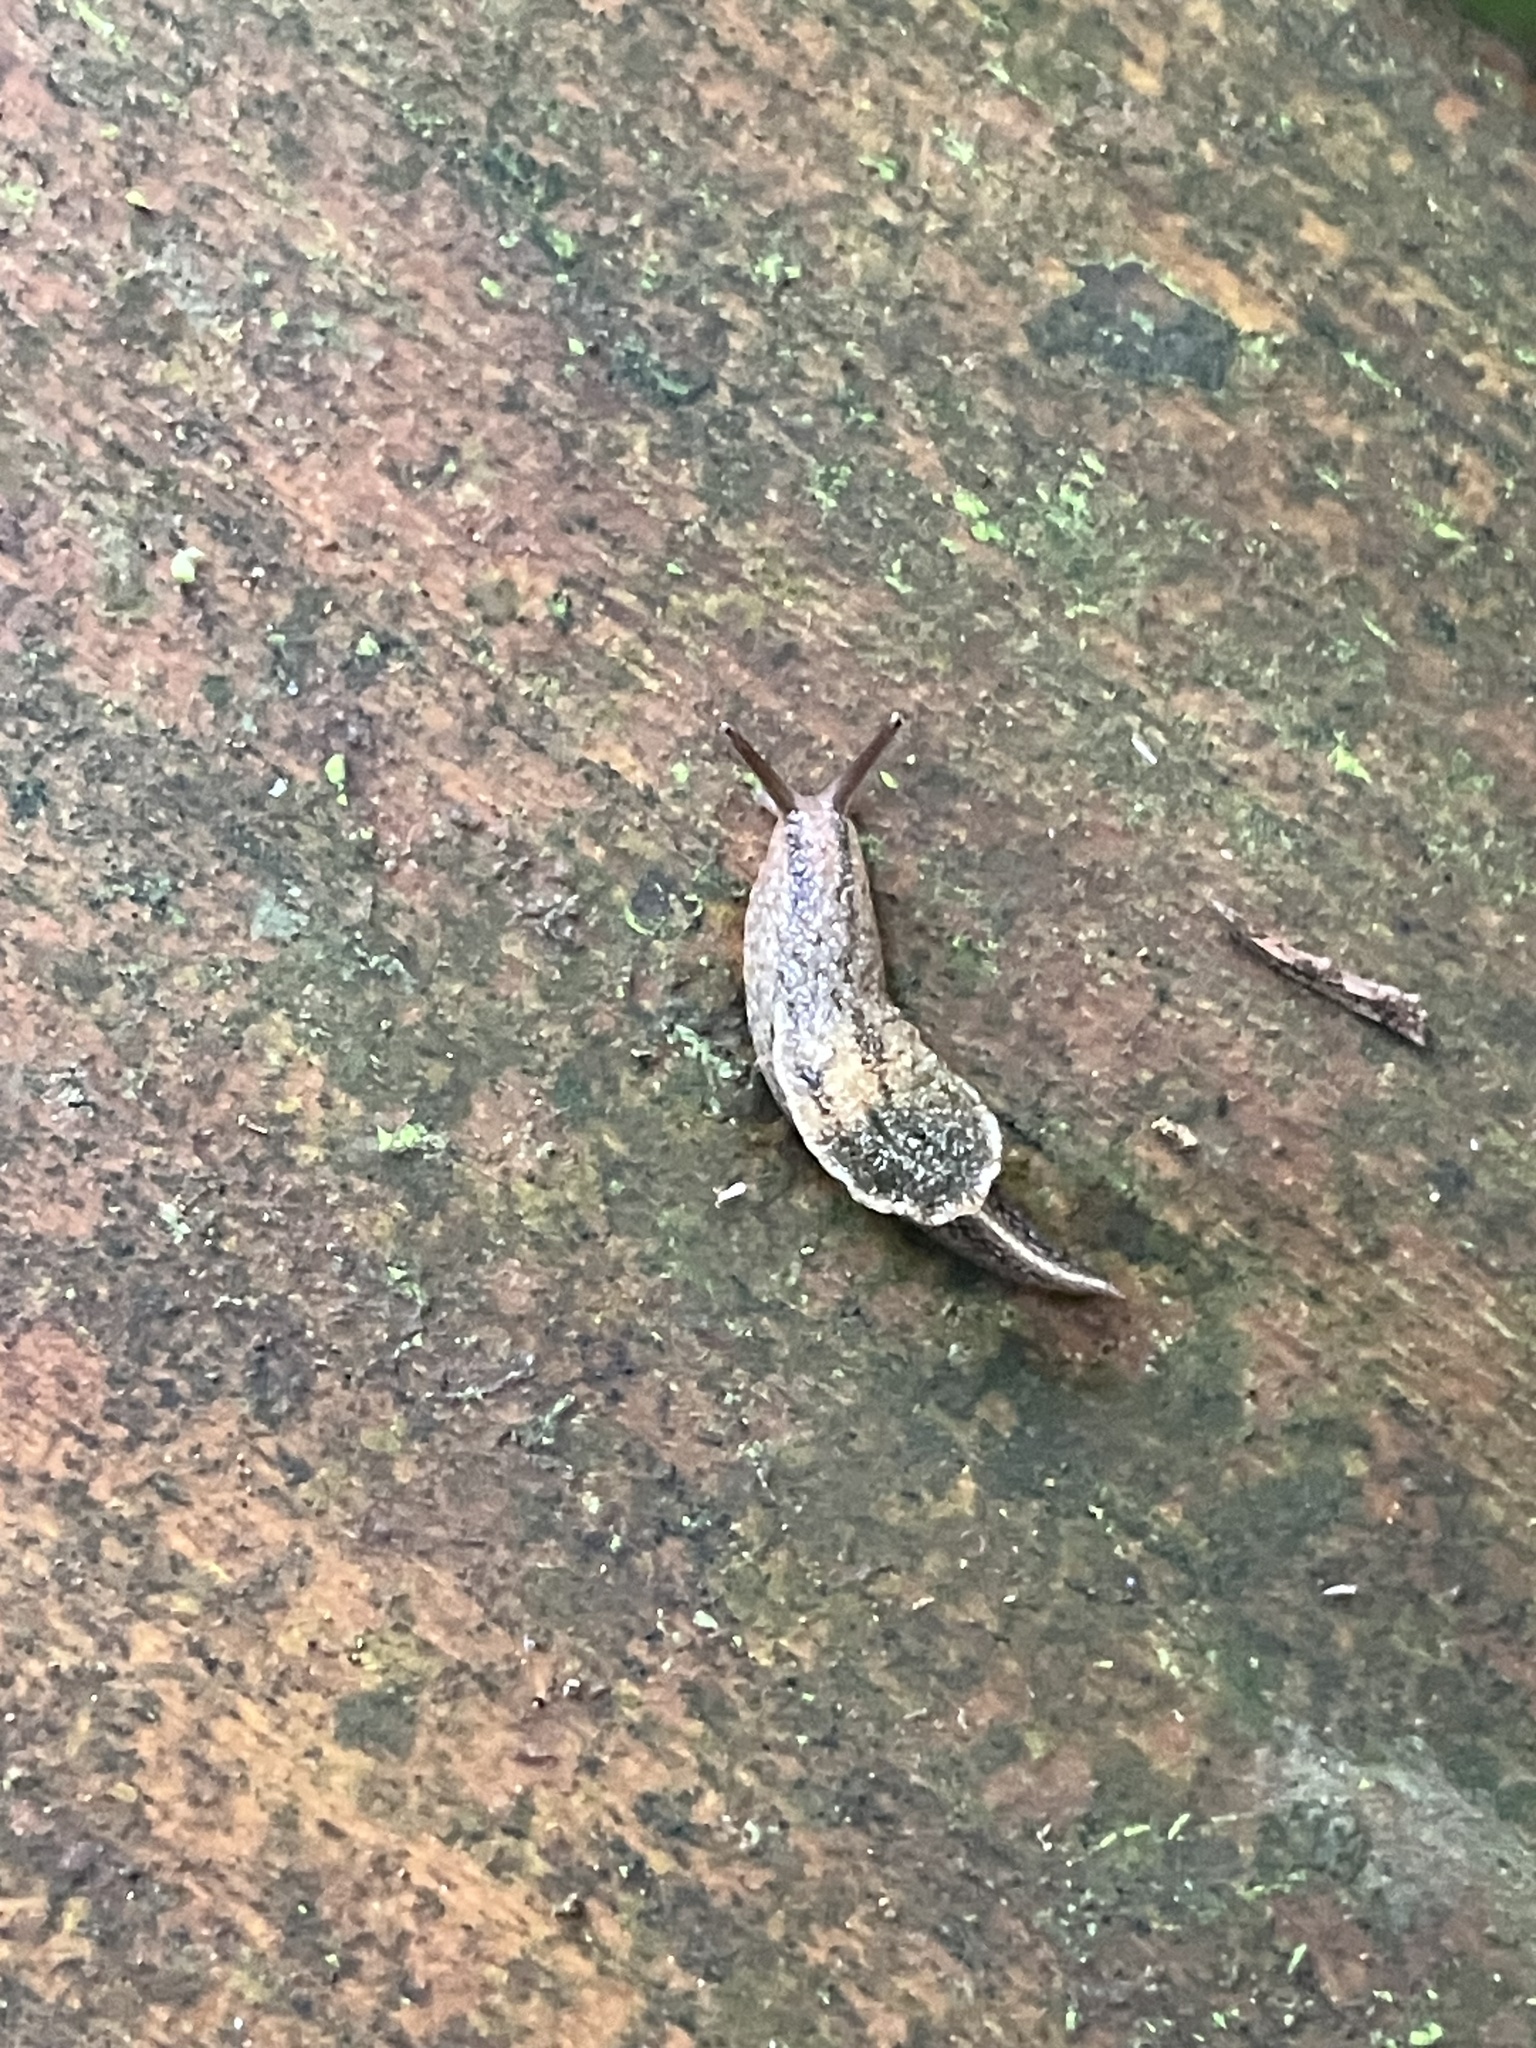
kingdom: Animalia
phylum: Mollusca
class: Gastropoda
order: Stylommatophora
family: Ariophantidae
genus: Parmarion
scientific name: Parmarion martensi
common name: Semi-slug
